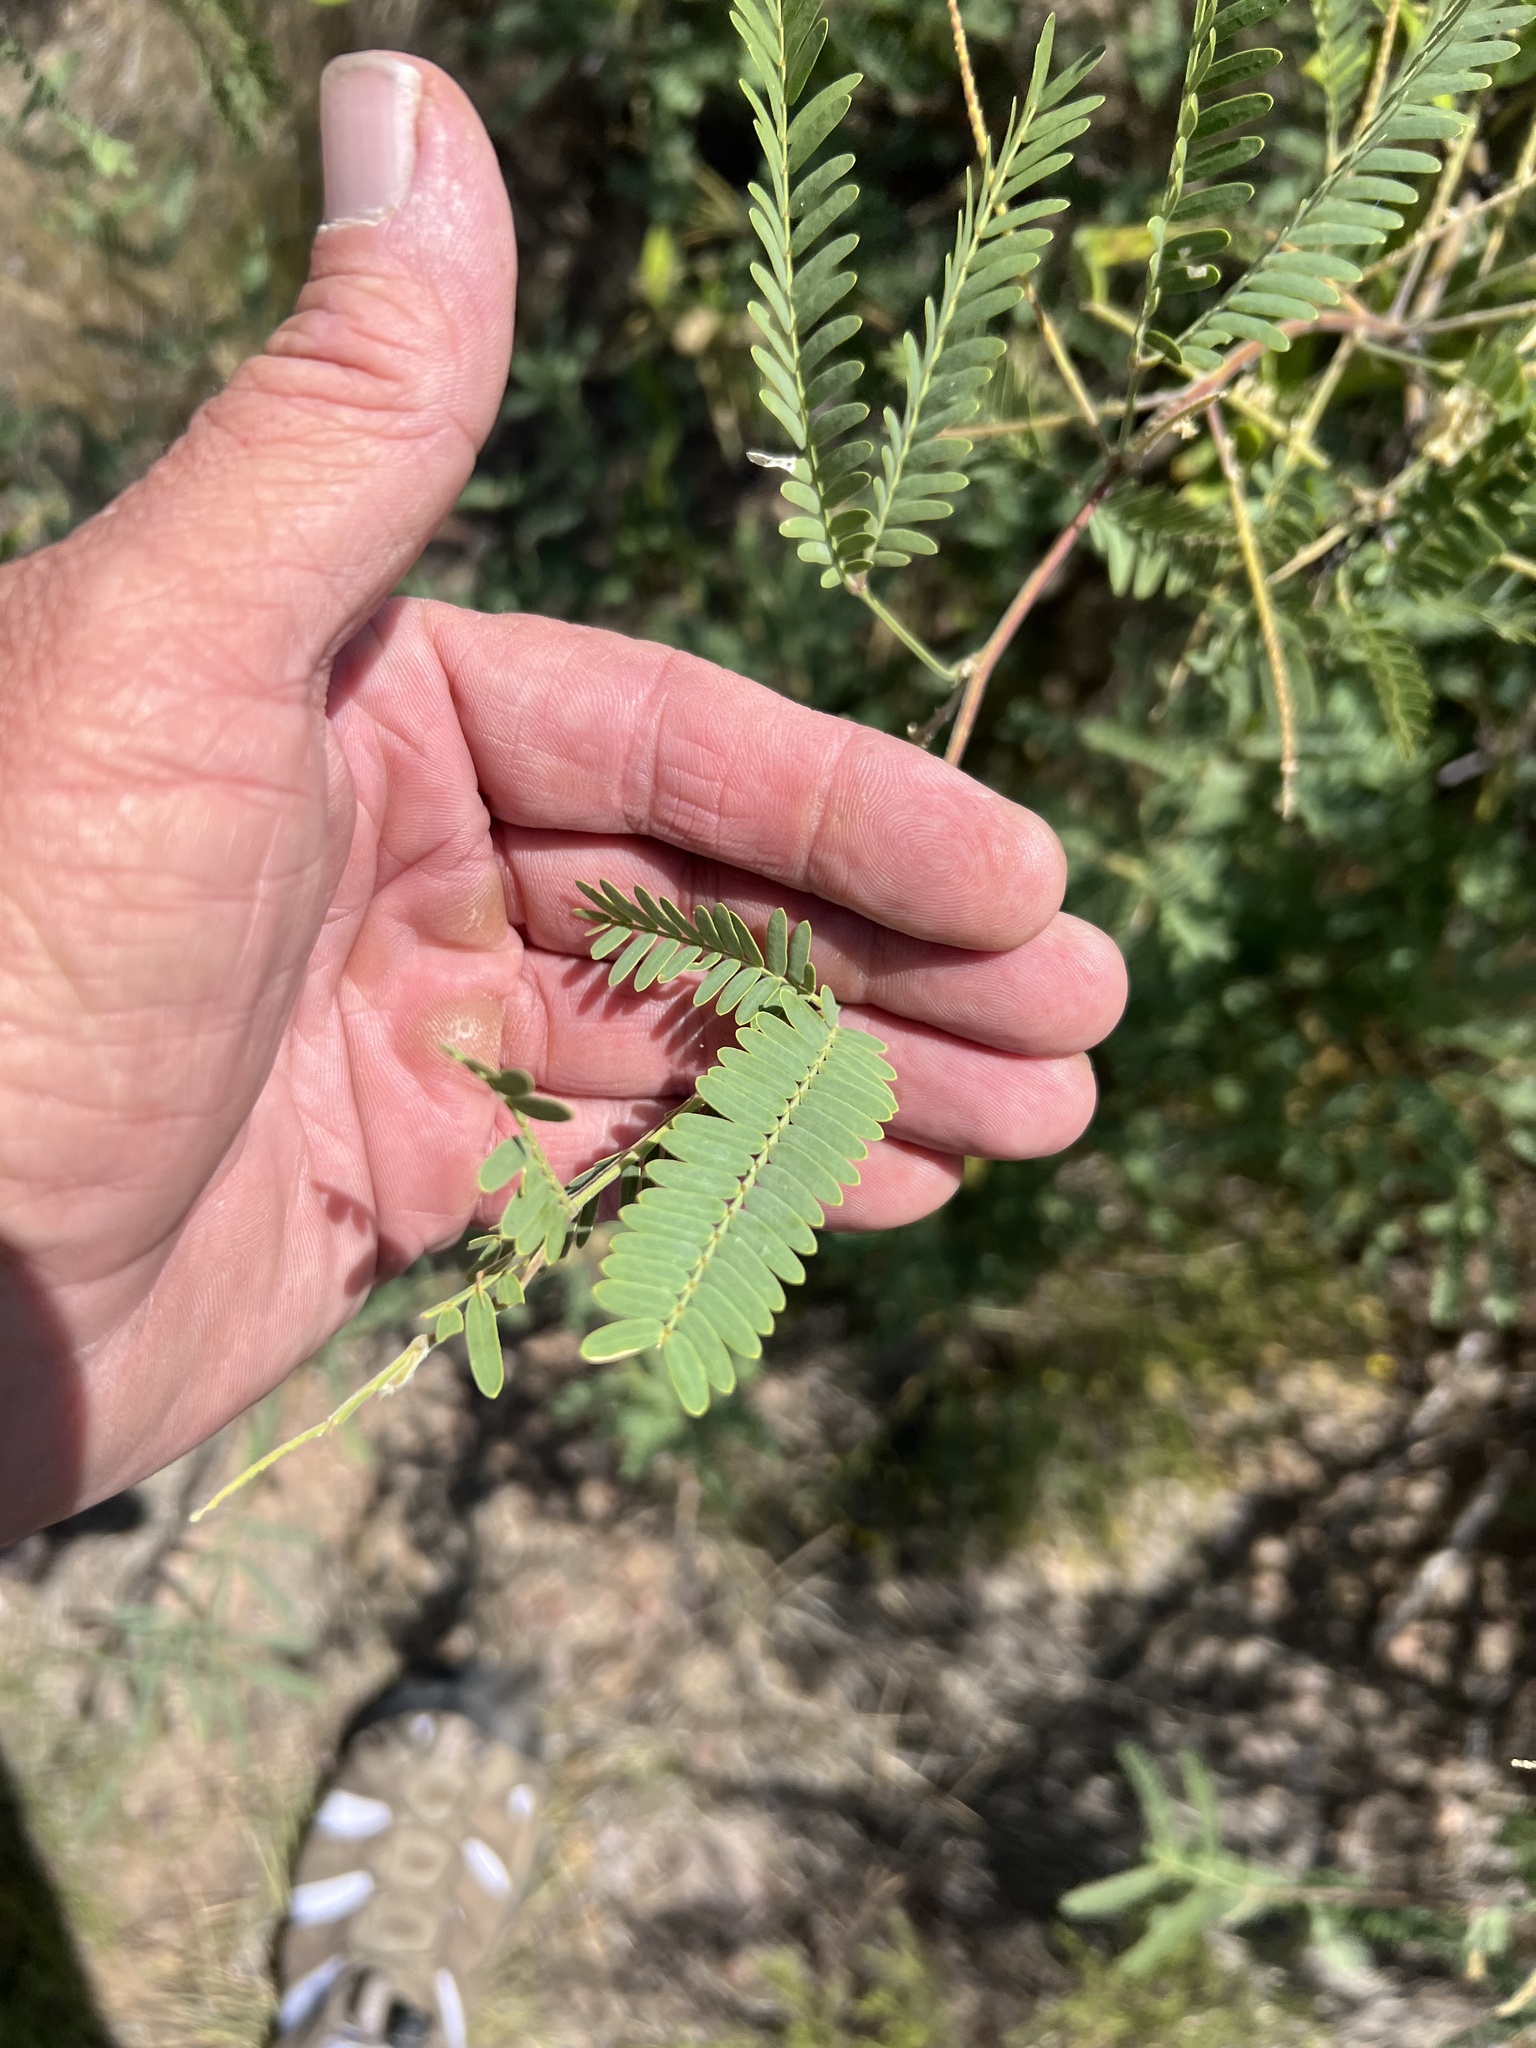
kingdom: Plantae
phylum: Tracheophyta
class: Magnoliopsida
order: Fabales
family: Fabaceae
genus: Prosopis
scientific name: Prosopis velutina
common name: Velvet mesquite
